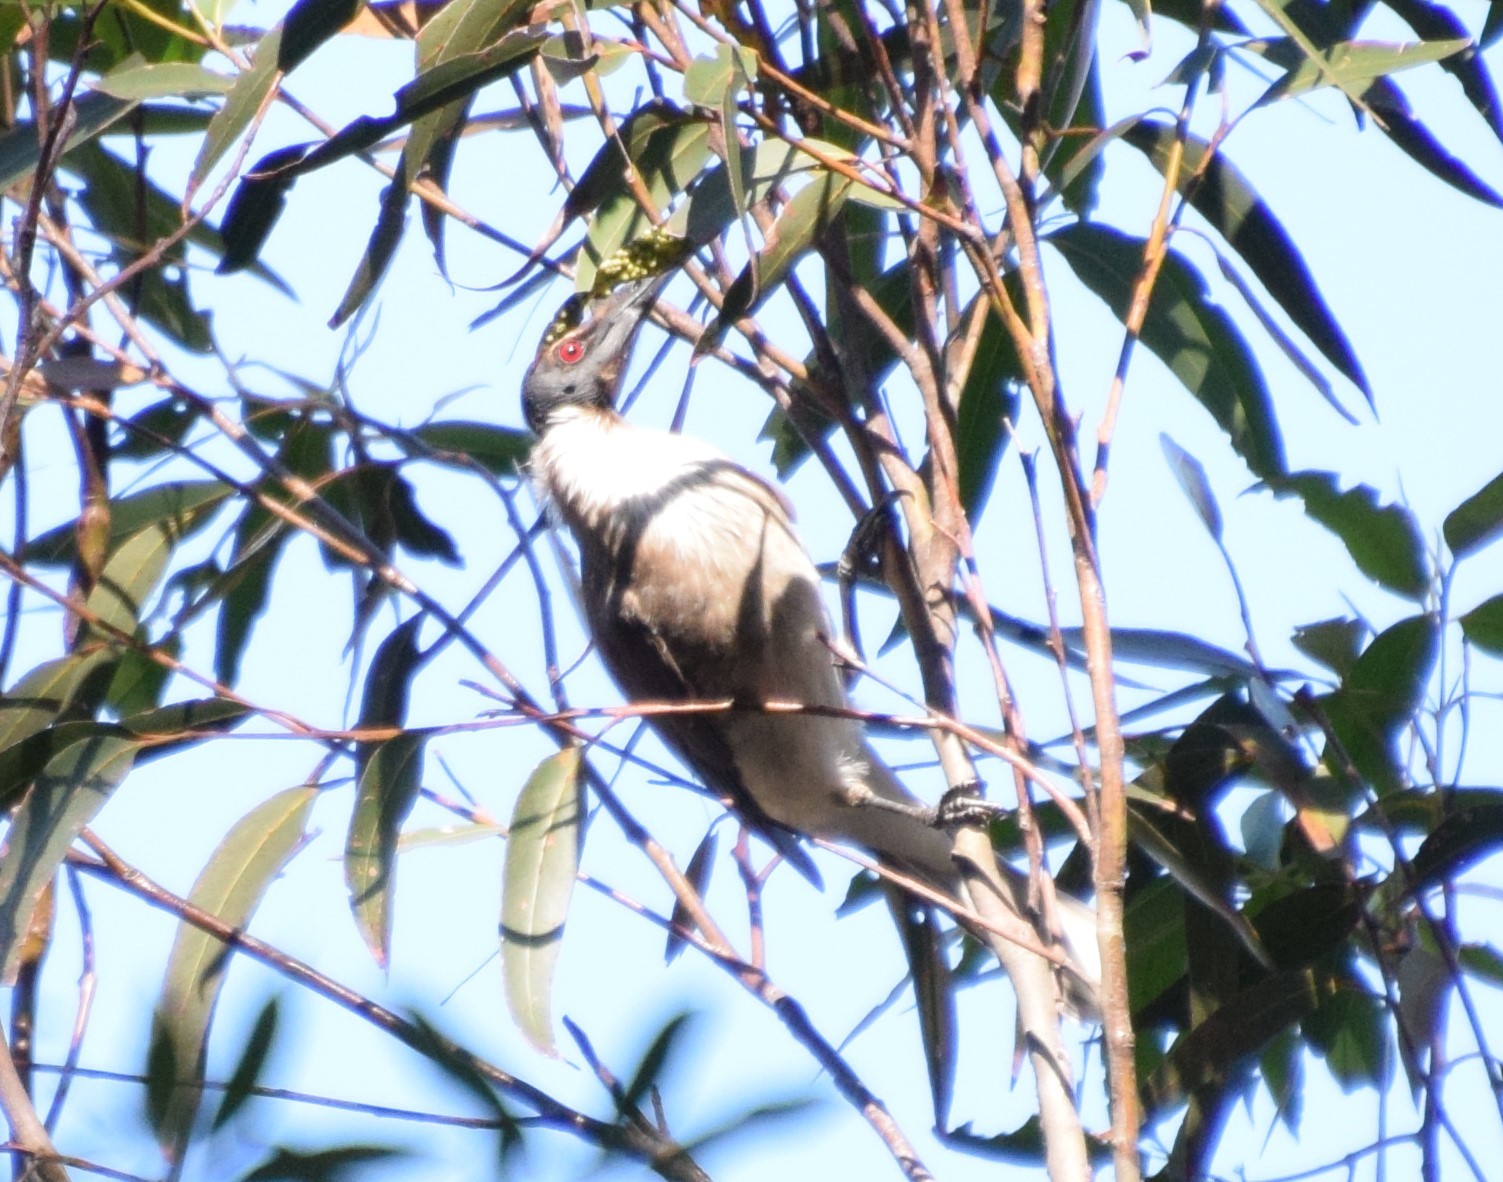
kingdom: Animalia
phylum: Chordata
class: Aves
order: Passeriformes
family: Meliphagidae
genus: Philemon
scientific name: Philemon corniculatus
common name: Noisy friarbird
